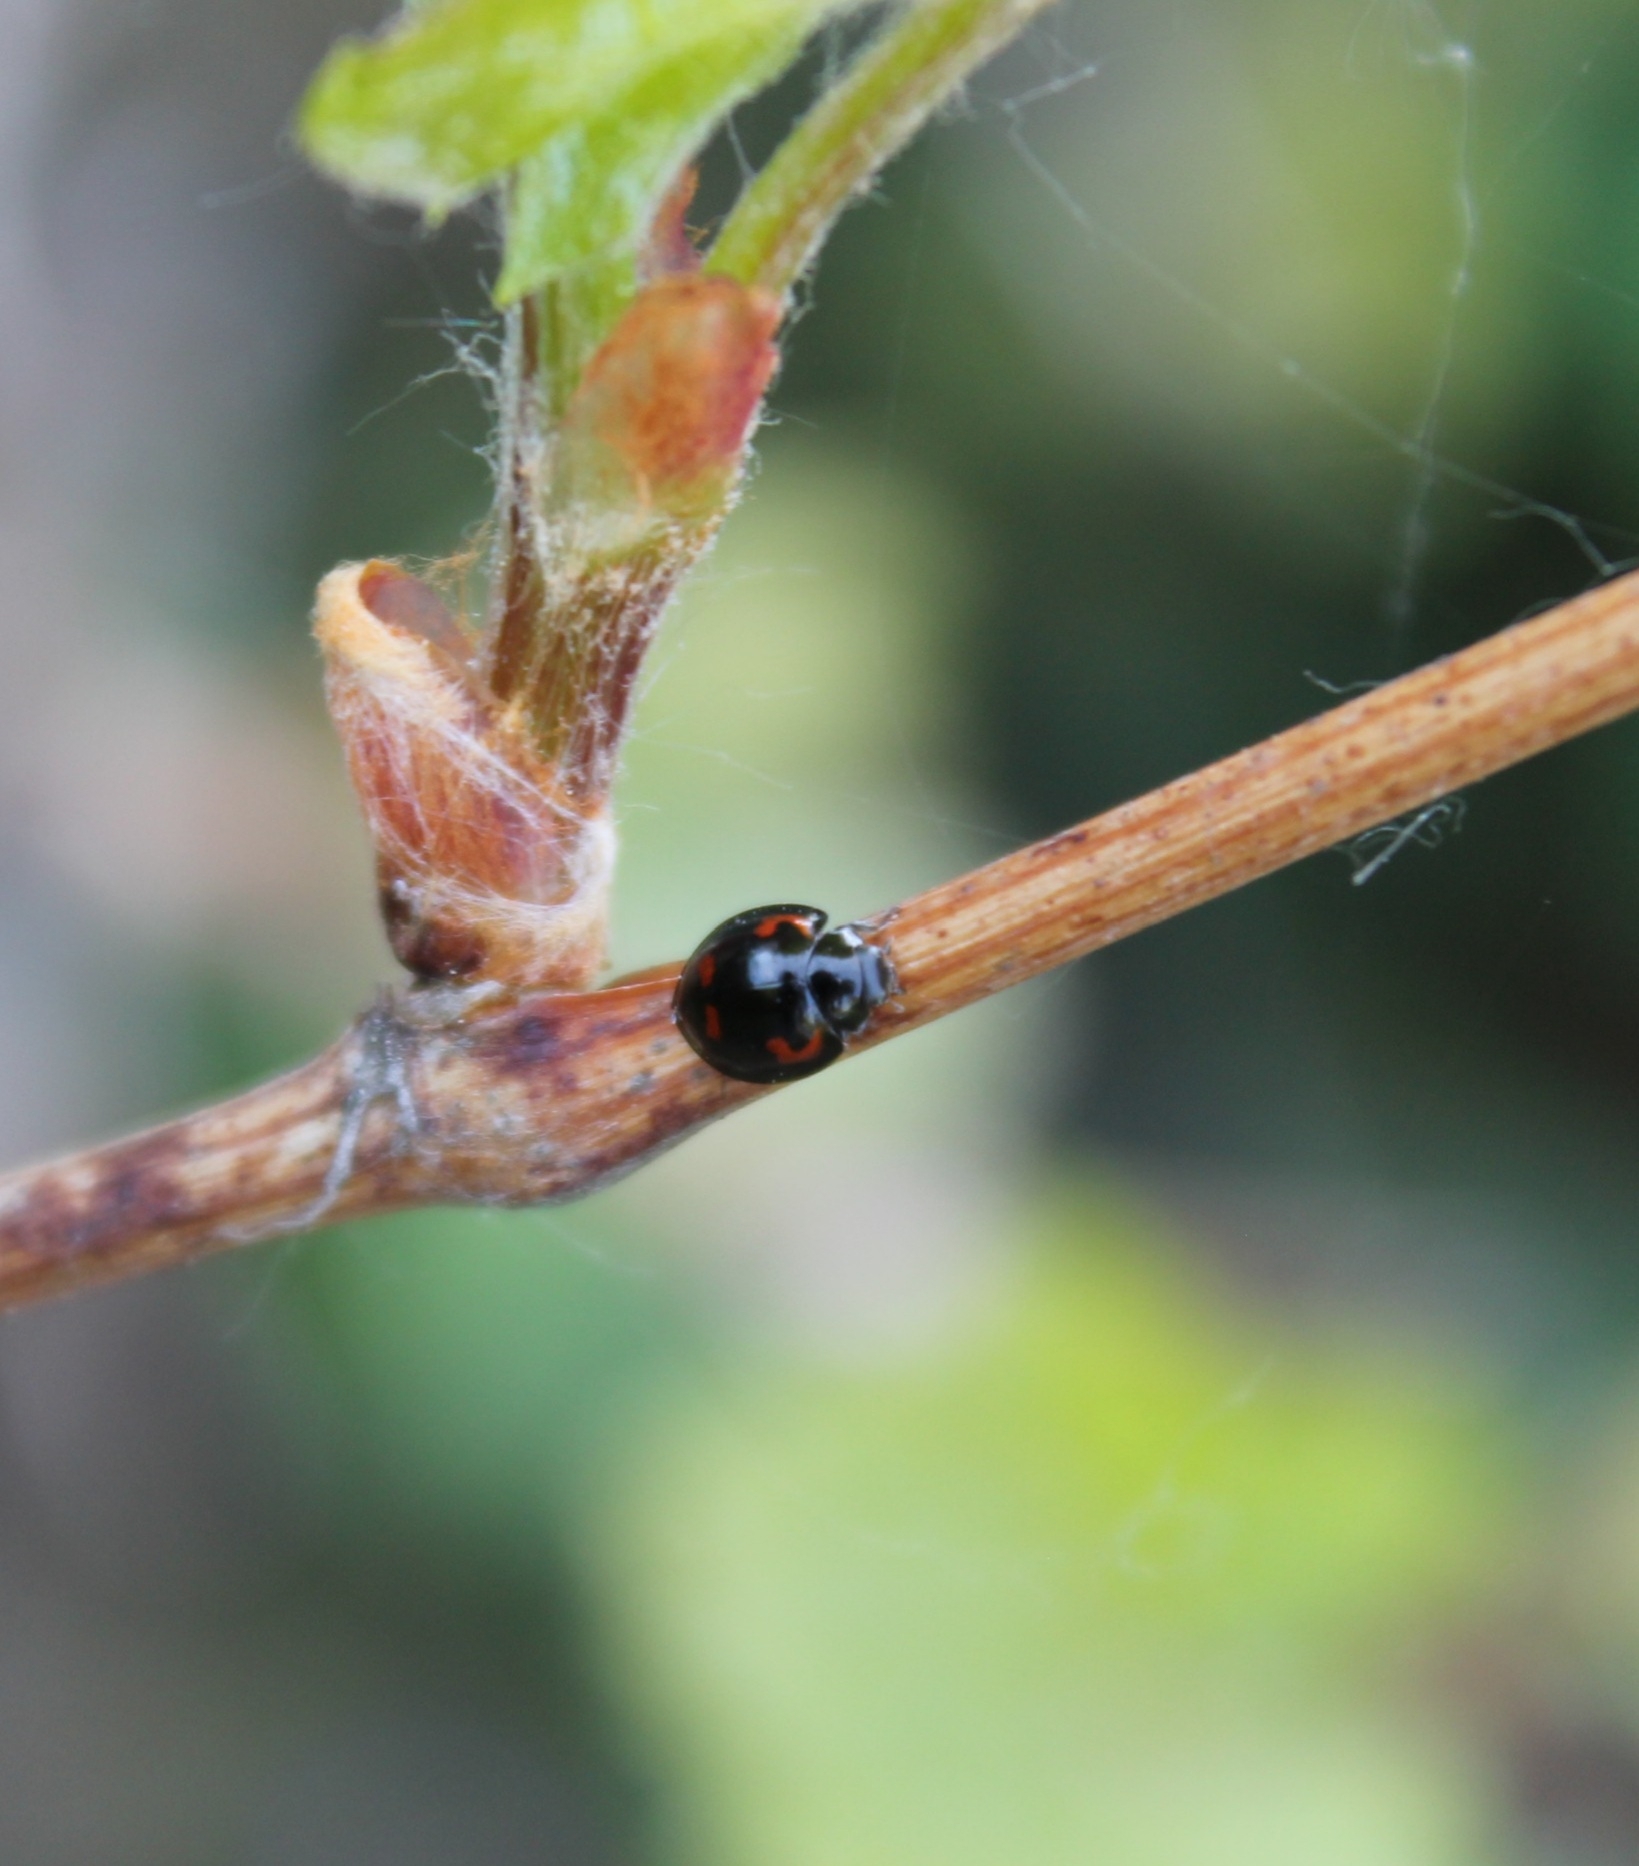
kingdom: Animalia
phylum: Arthropoda
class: Insecta
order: Coleoptera
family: Coccinellidae
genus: Brumus
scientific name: Brumus quadripustulatus
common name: Ladybird beetle
